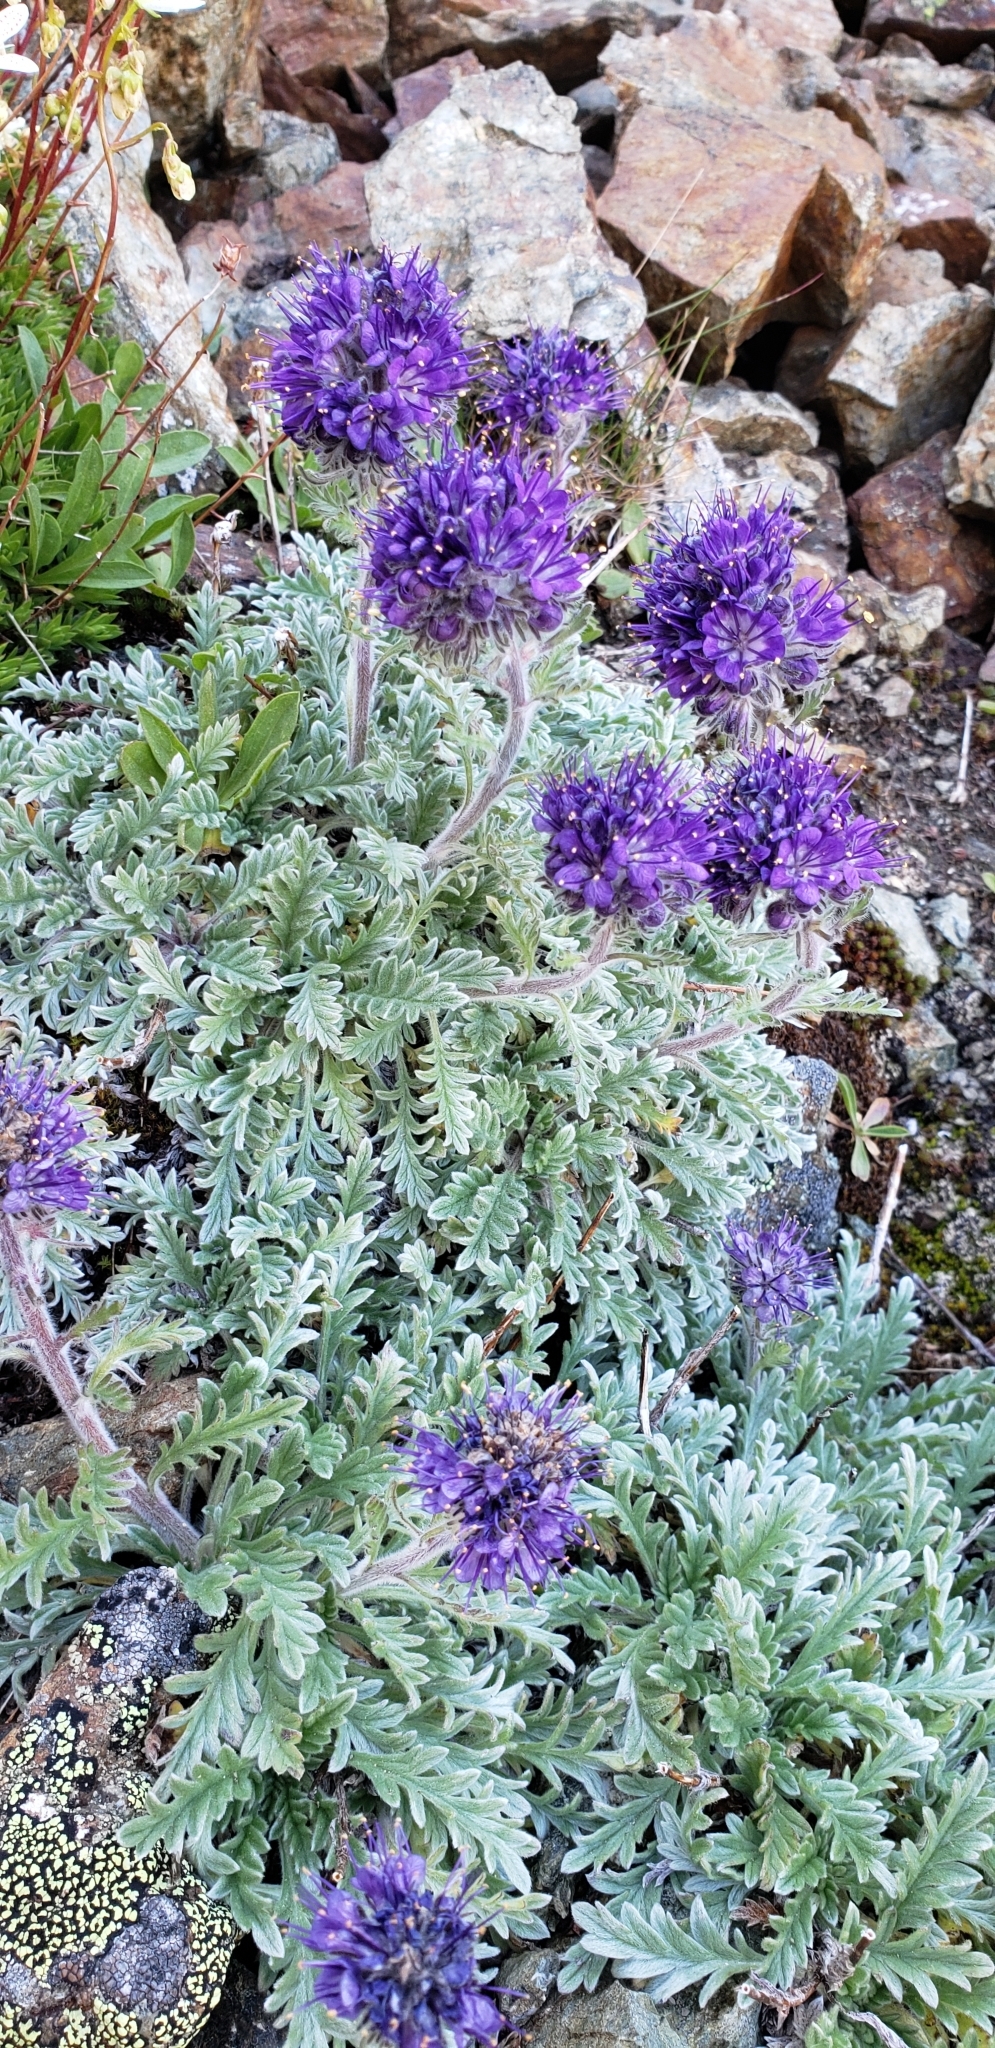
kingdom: Plantae
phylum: Tracheophyta
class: Magnoliopsida
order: Boraginales
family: Hydrophyllaceae
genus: Phacelia
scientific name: Phacelia sericea
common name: Silky phacelia
